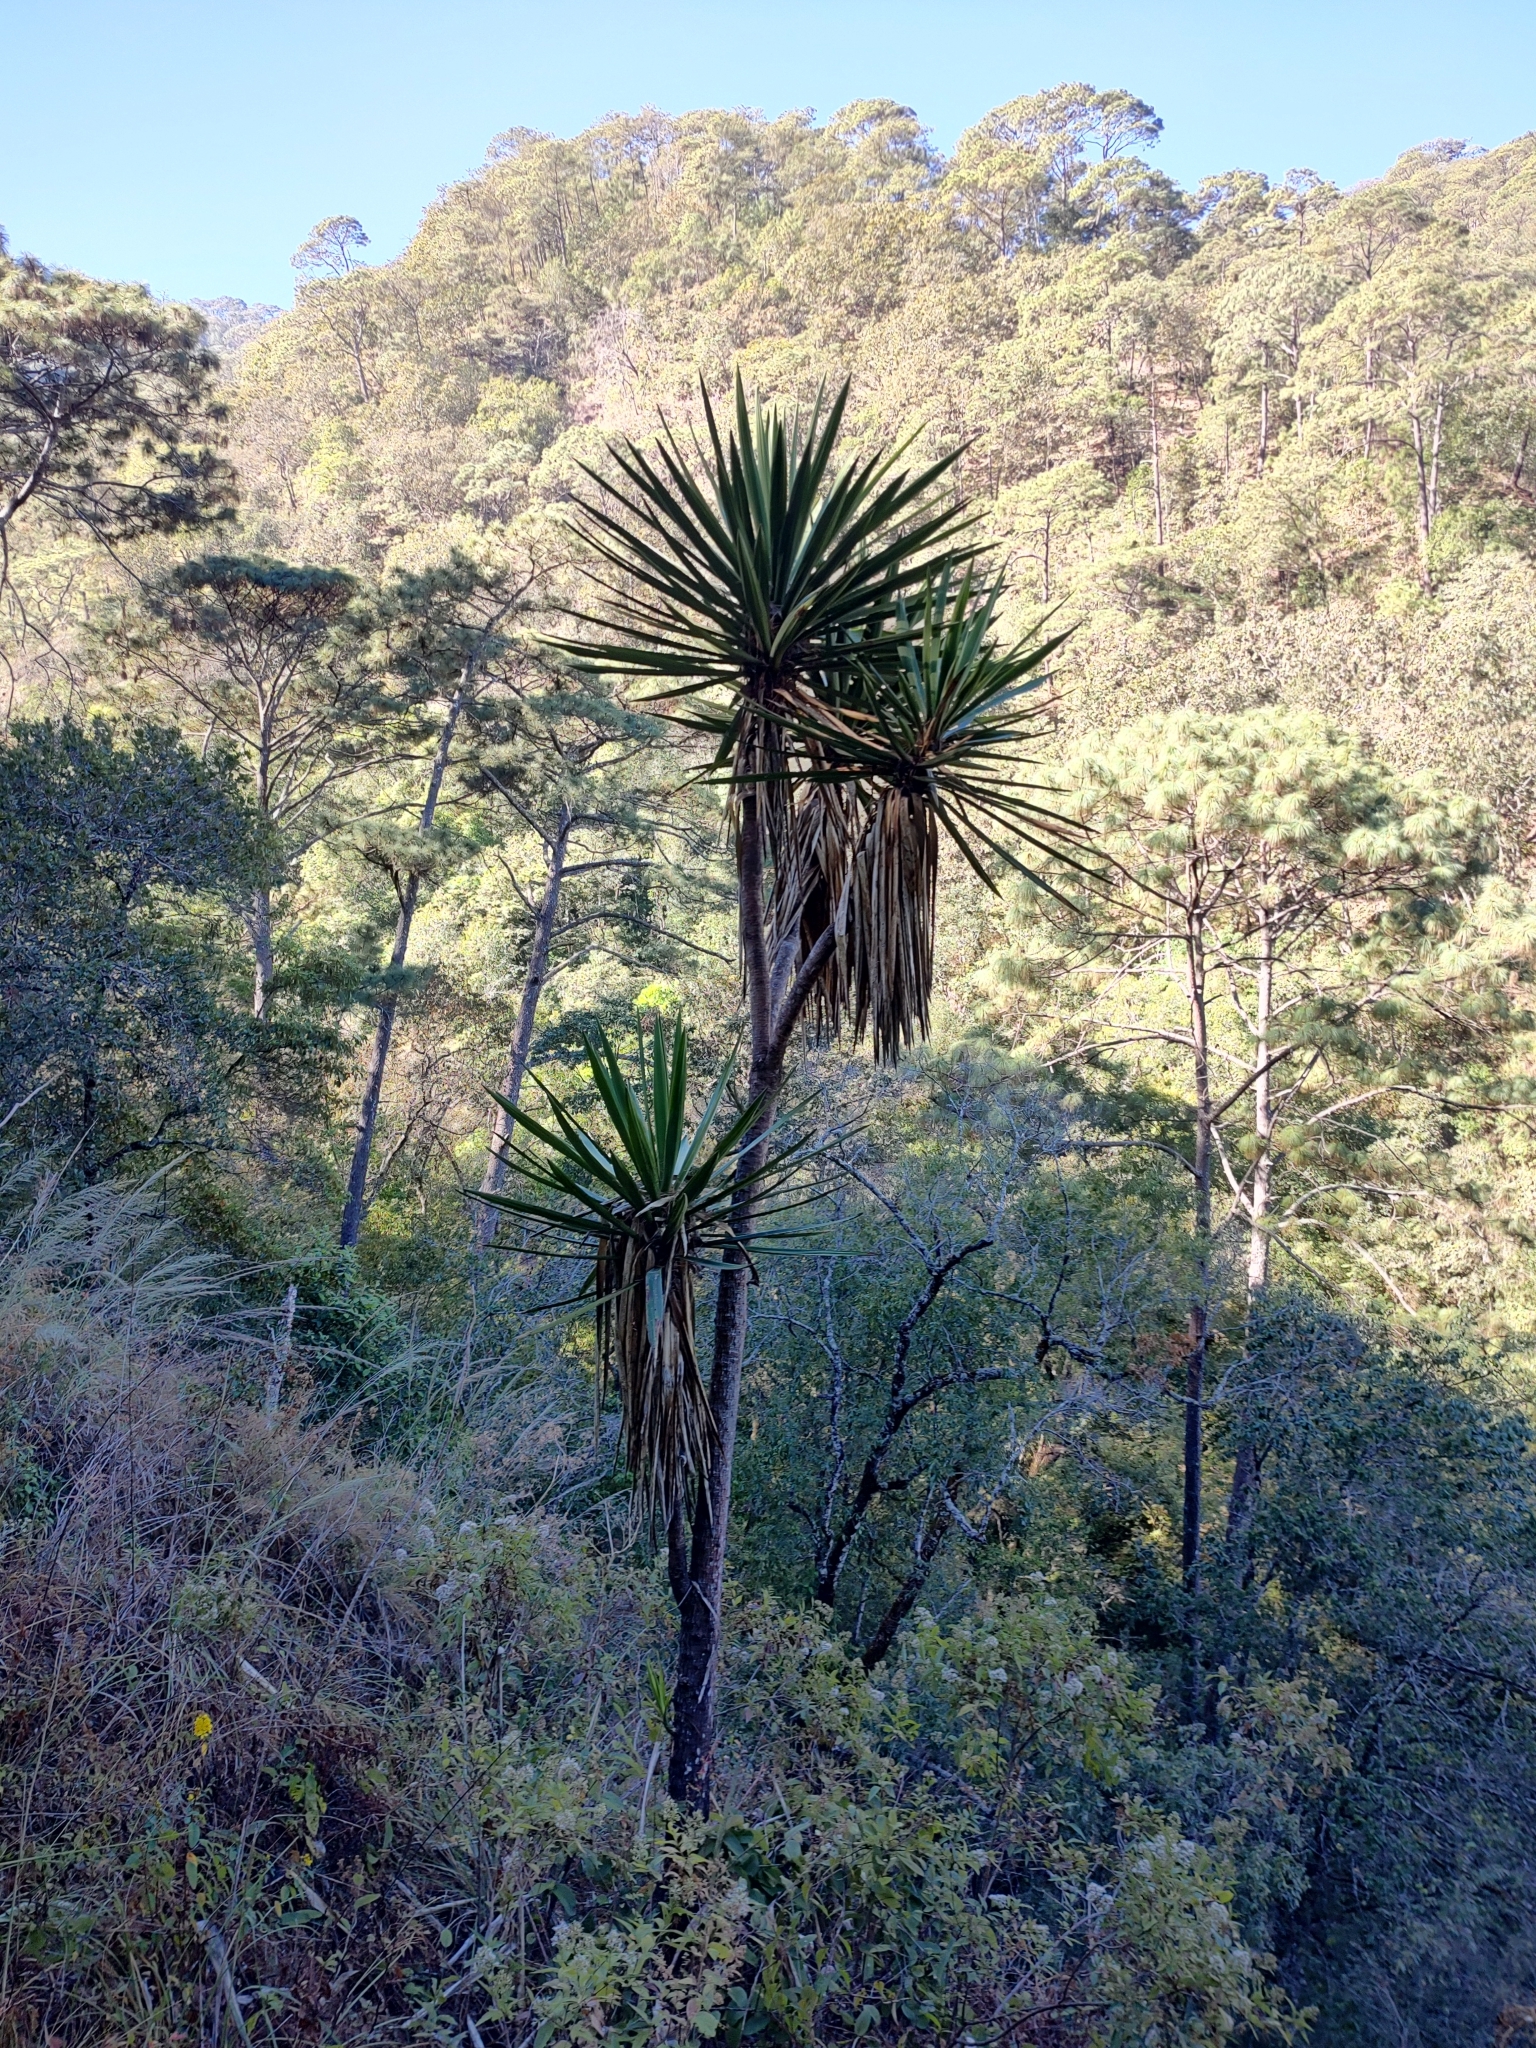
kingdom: Plantae
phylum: Tracheophyta
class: Liliopsida
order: Asparagales
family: Asparagaceae
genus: Yucca
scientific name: Yucca jaliscensis
